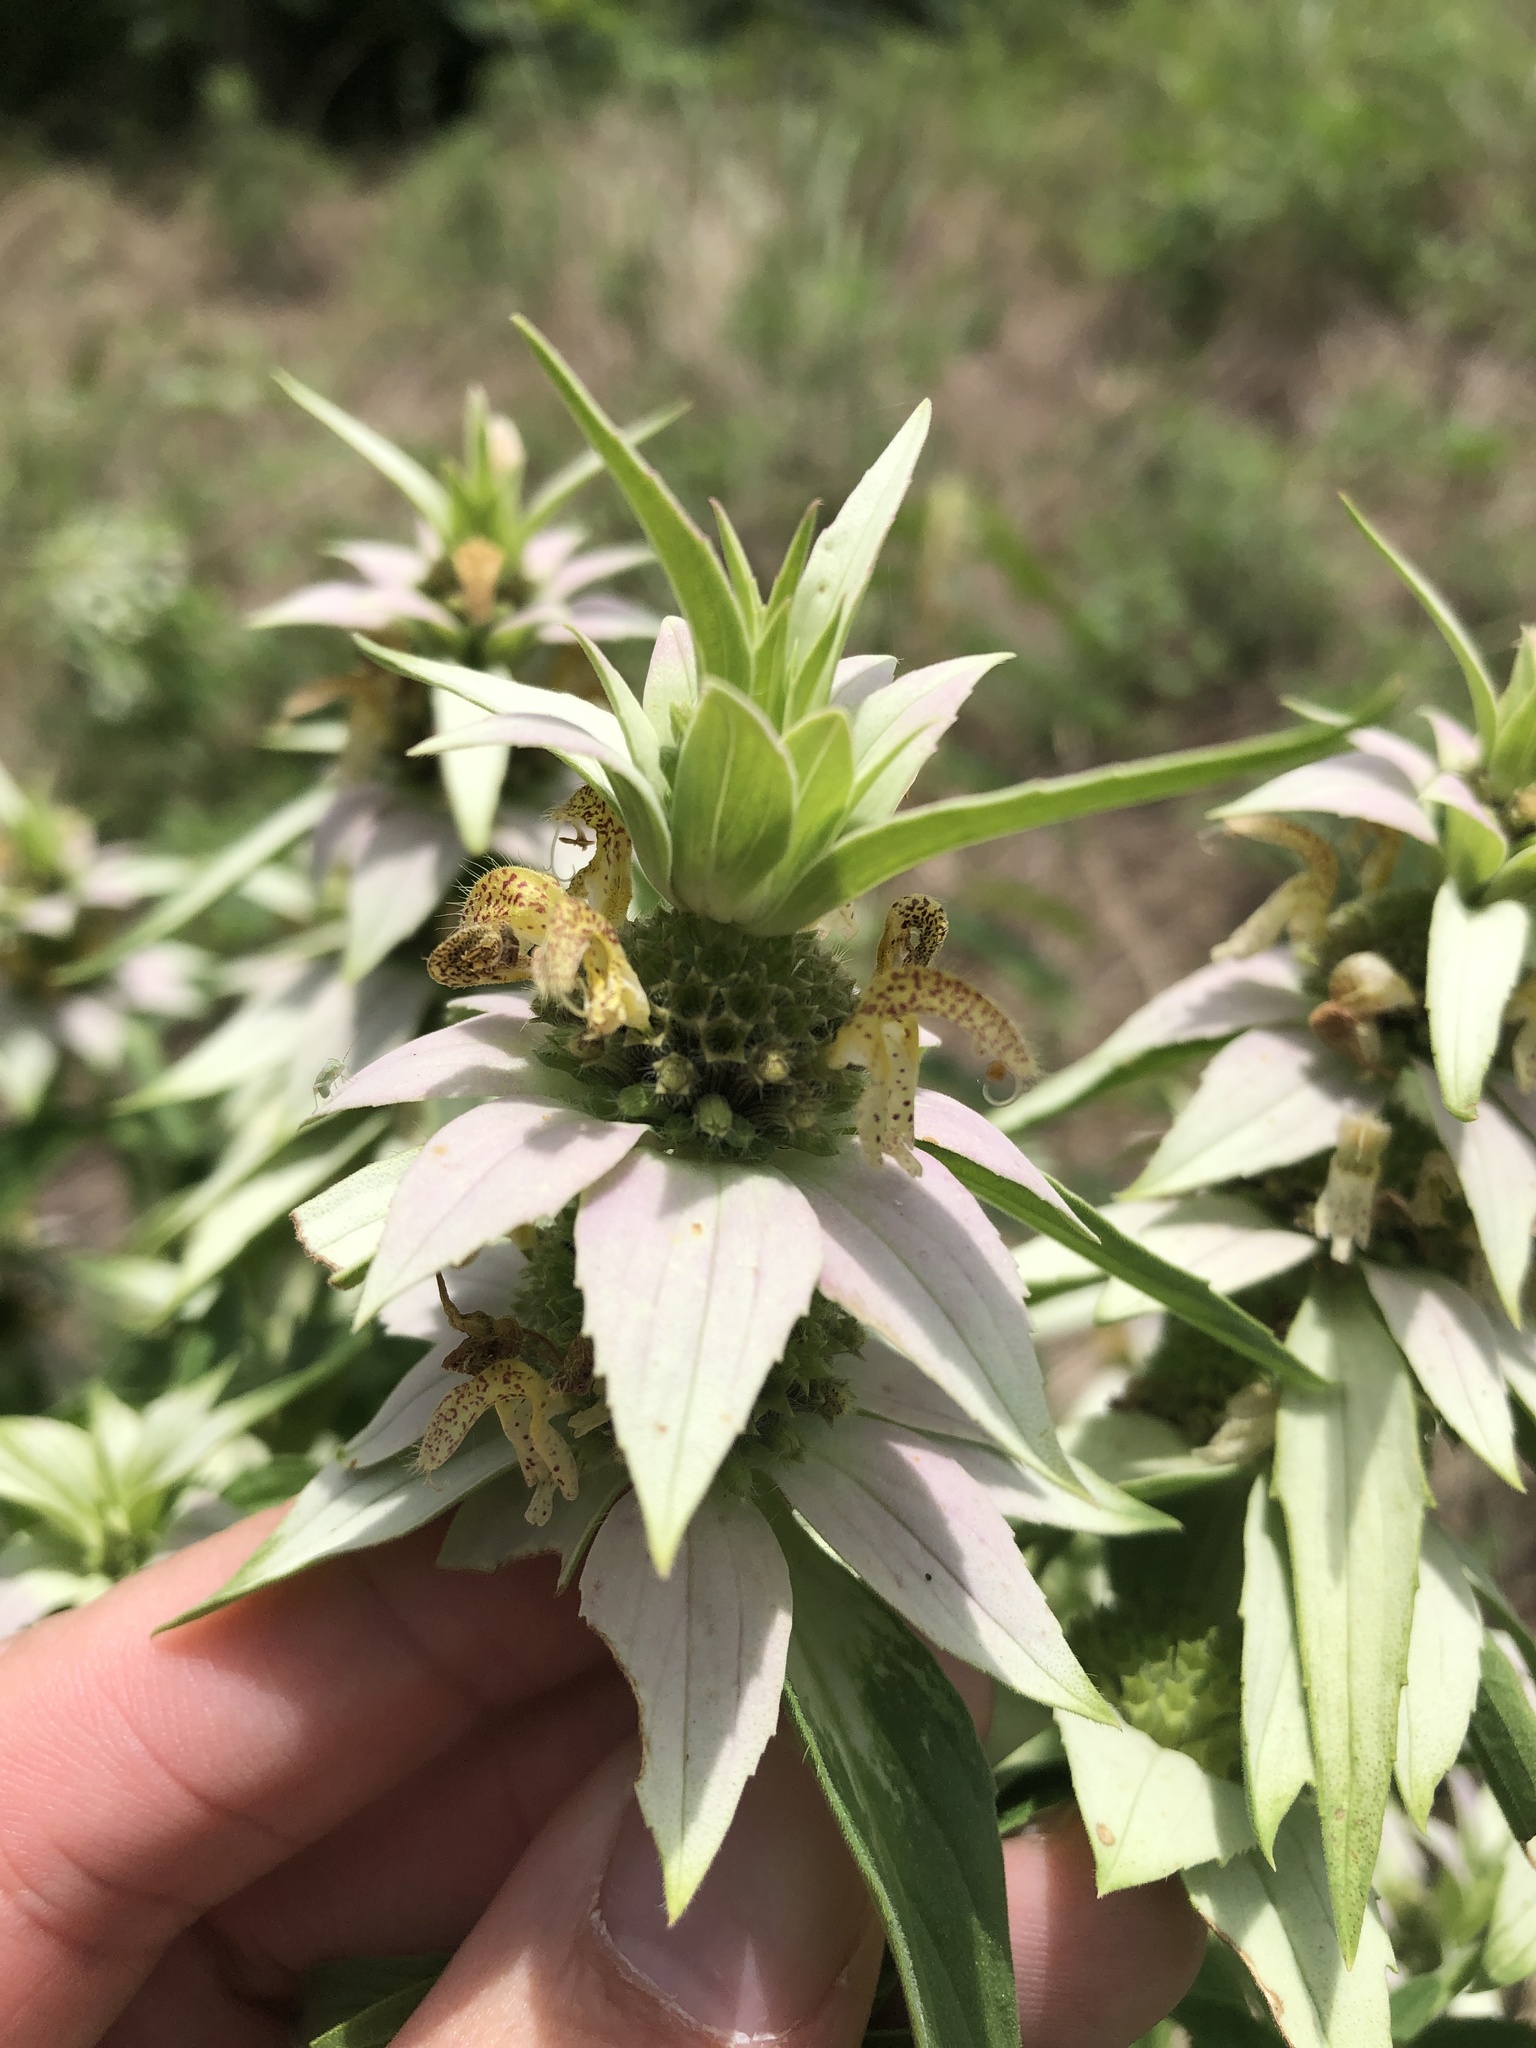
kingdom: Plantae
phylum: Tracheophyta
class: Magnoliopsida
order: Lamiales
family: Lamiaceae
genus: Monarda
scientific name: Monarda punctata
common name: Dotted monarda
